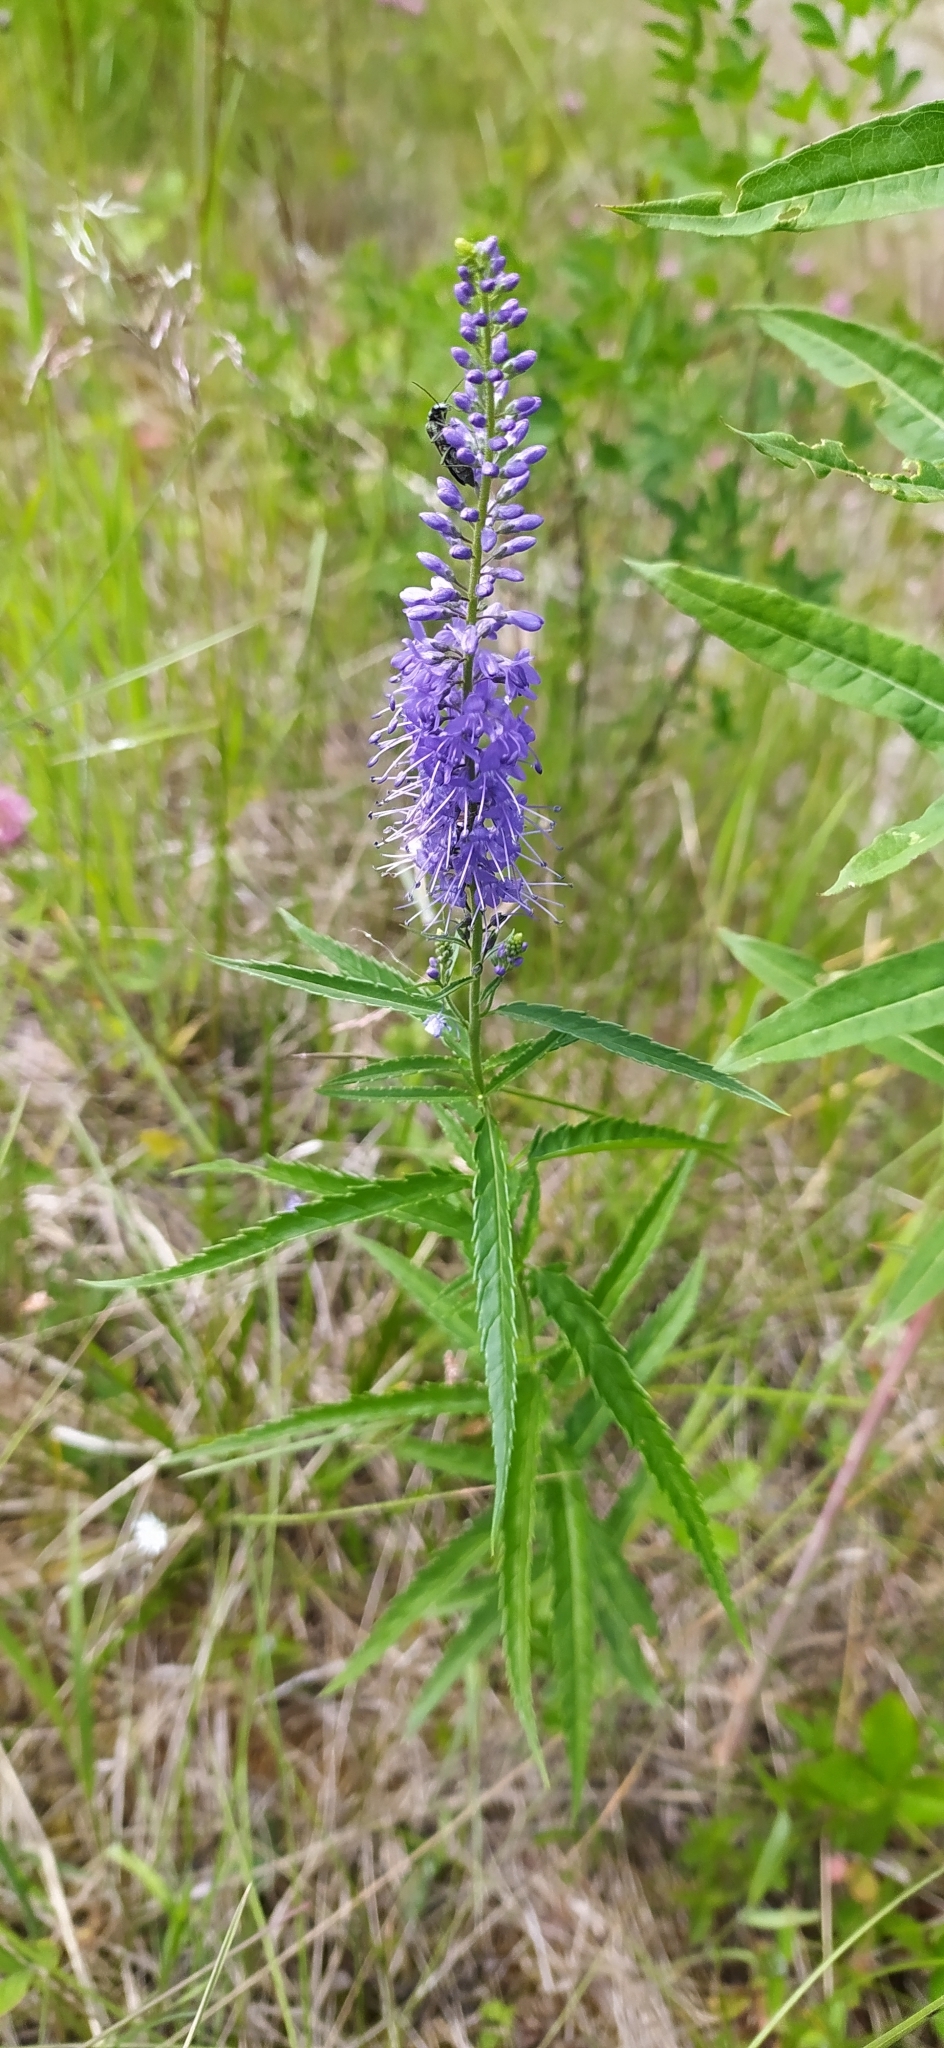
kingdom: Plantae
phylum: Tracheophyta
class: Magnoliopsida
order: Lamiales
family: Plantaginaceae
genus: Veronica
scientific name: Veronica longifolia
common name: Garden speedwell
